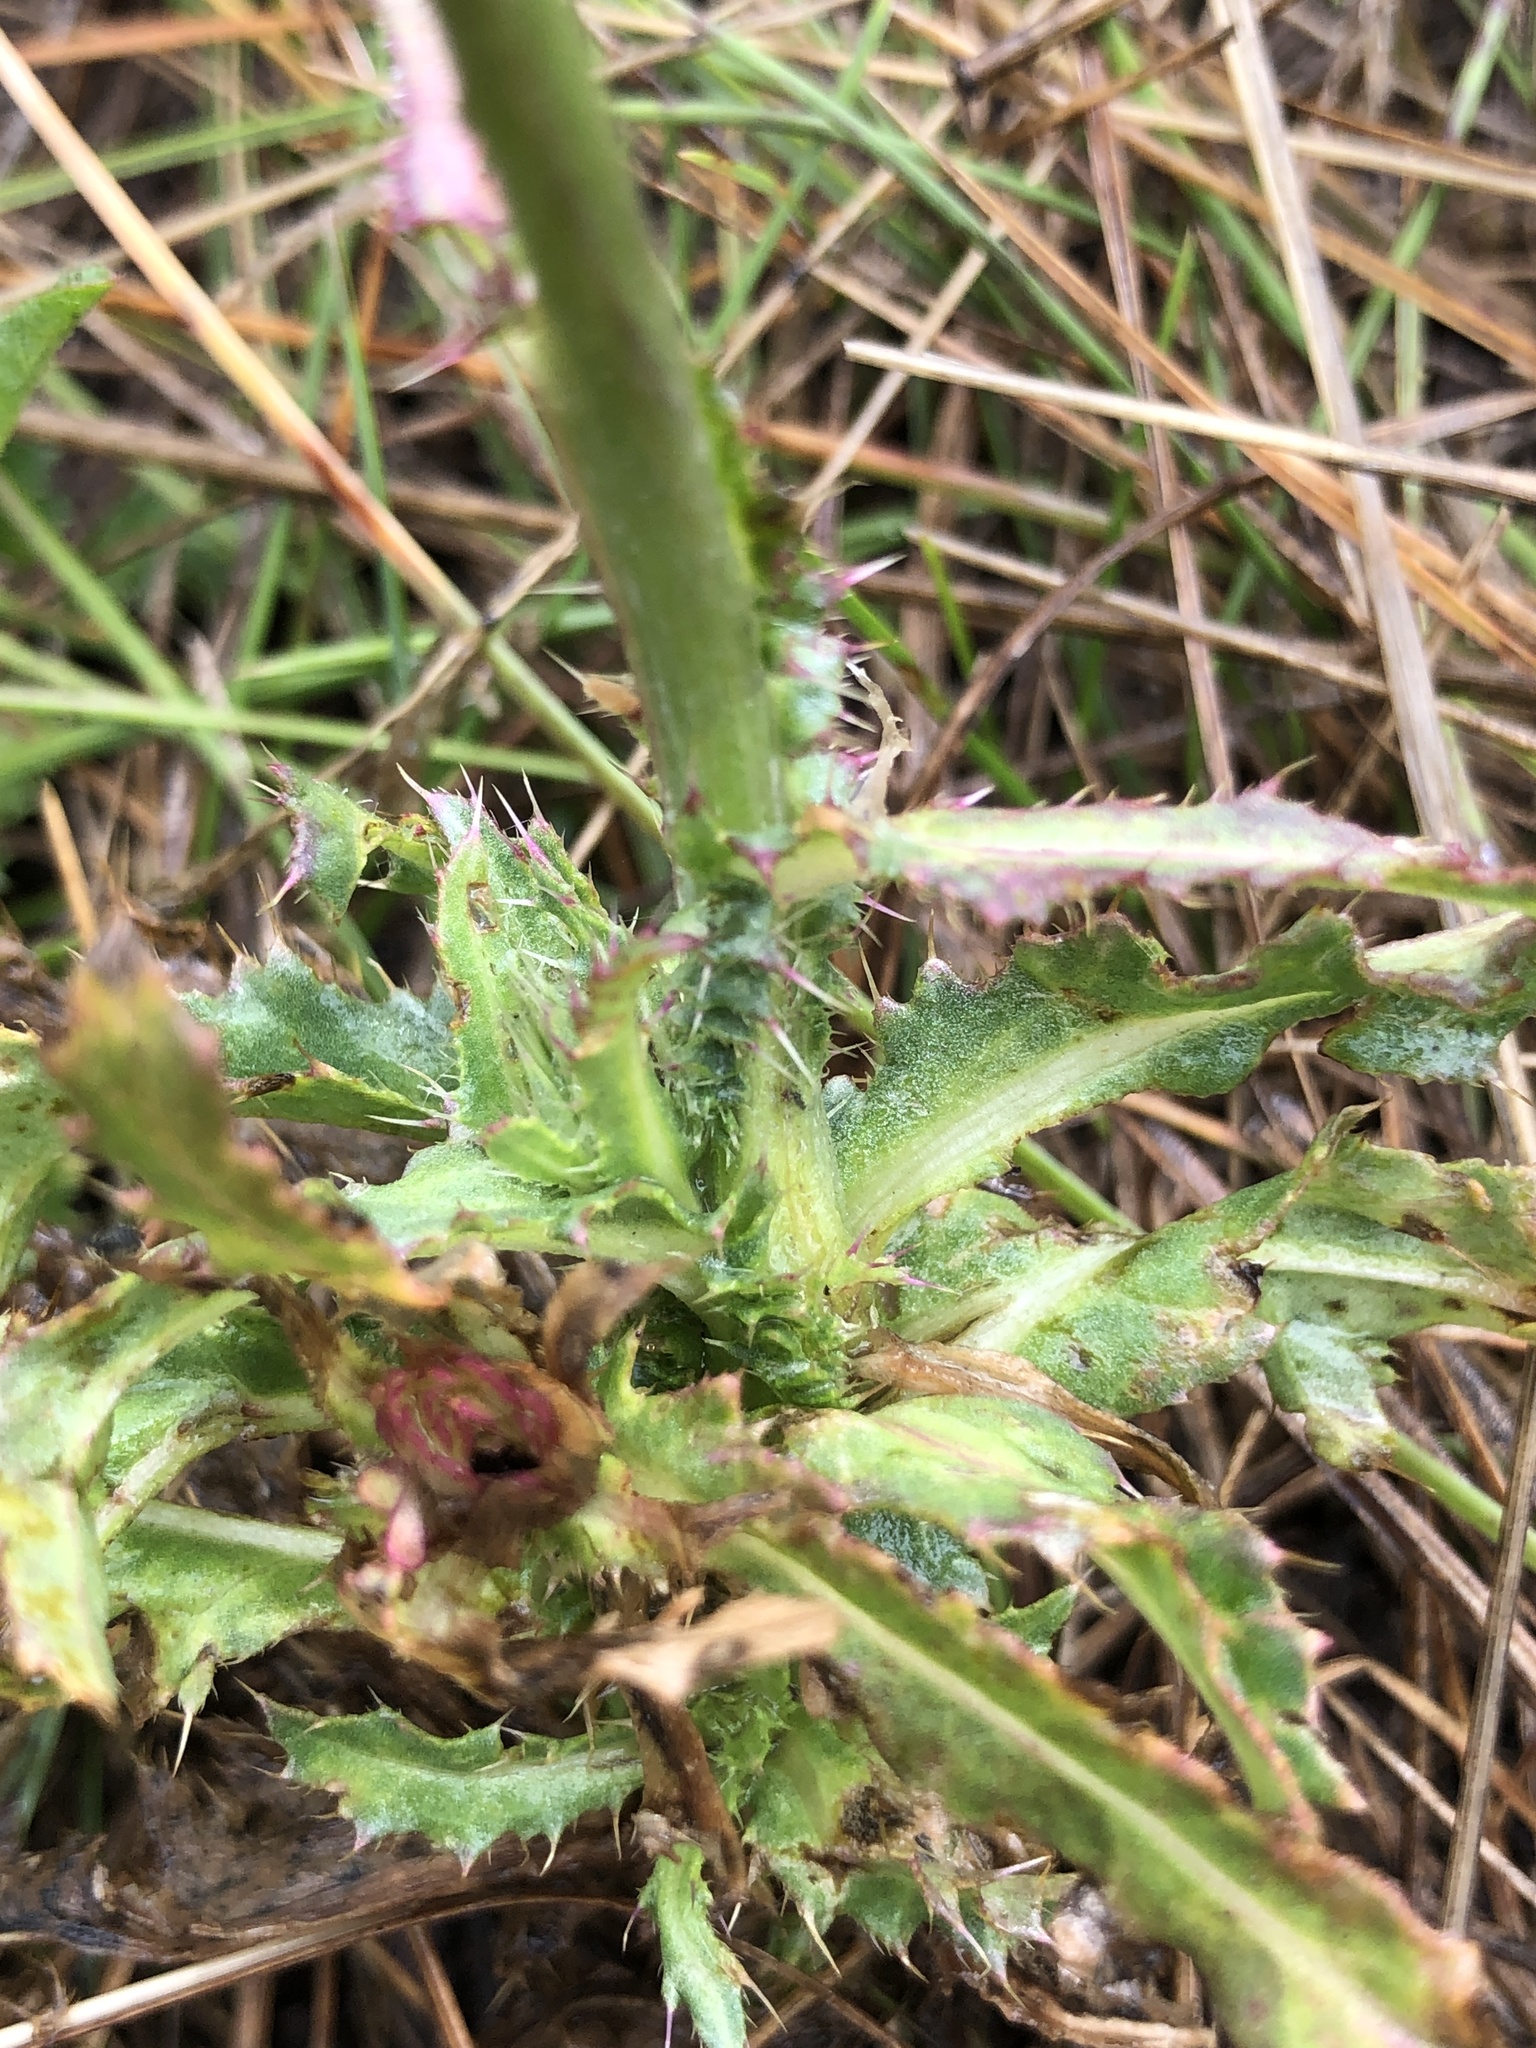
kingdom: Plantae
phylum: Tracheophyta
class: Magnoliopsida
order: Asterales
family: Asteraceae
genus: Carduus
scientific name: Carduus nutans
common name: Musk thistle
